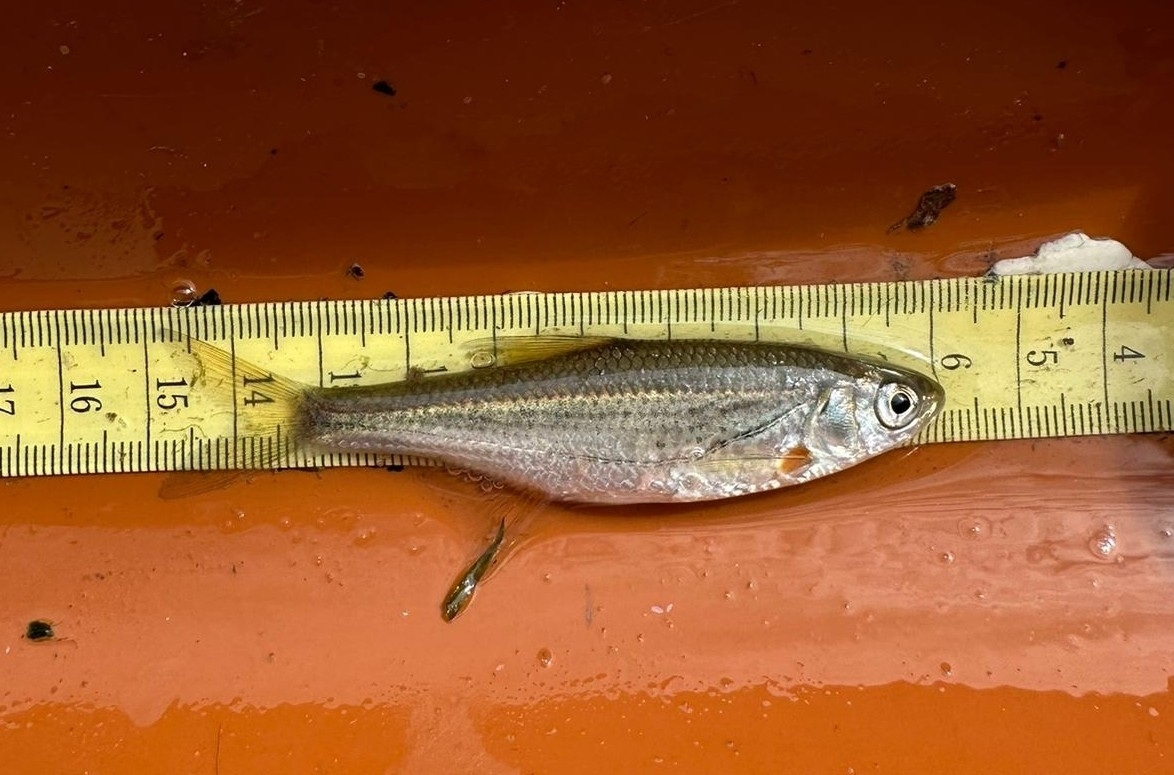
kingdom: Animalia
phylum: Chordata
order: Cypriniformes
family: Cyprinidae
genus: Alburnoides
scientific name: Alburnoides bipunctatus
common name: Spirlin
